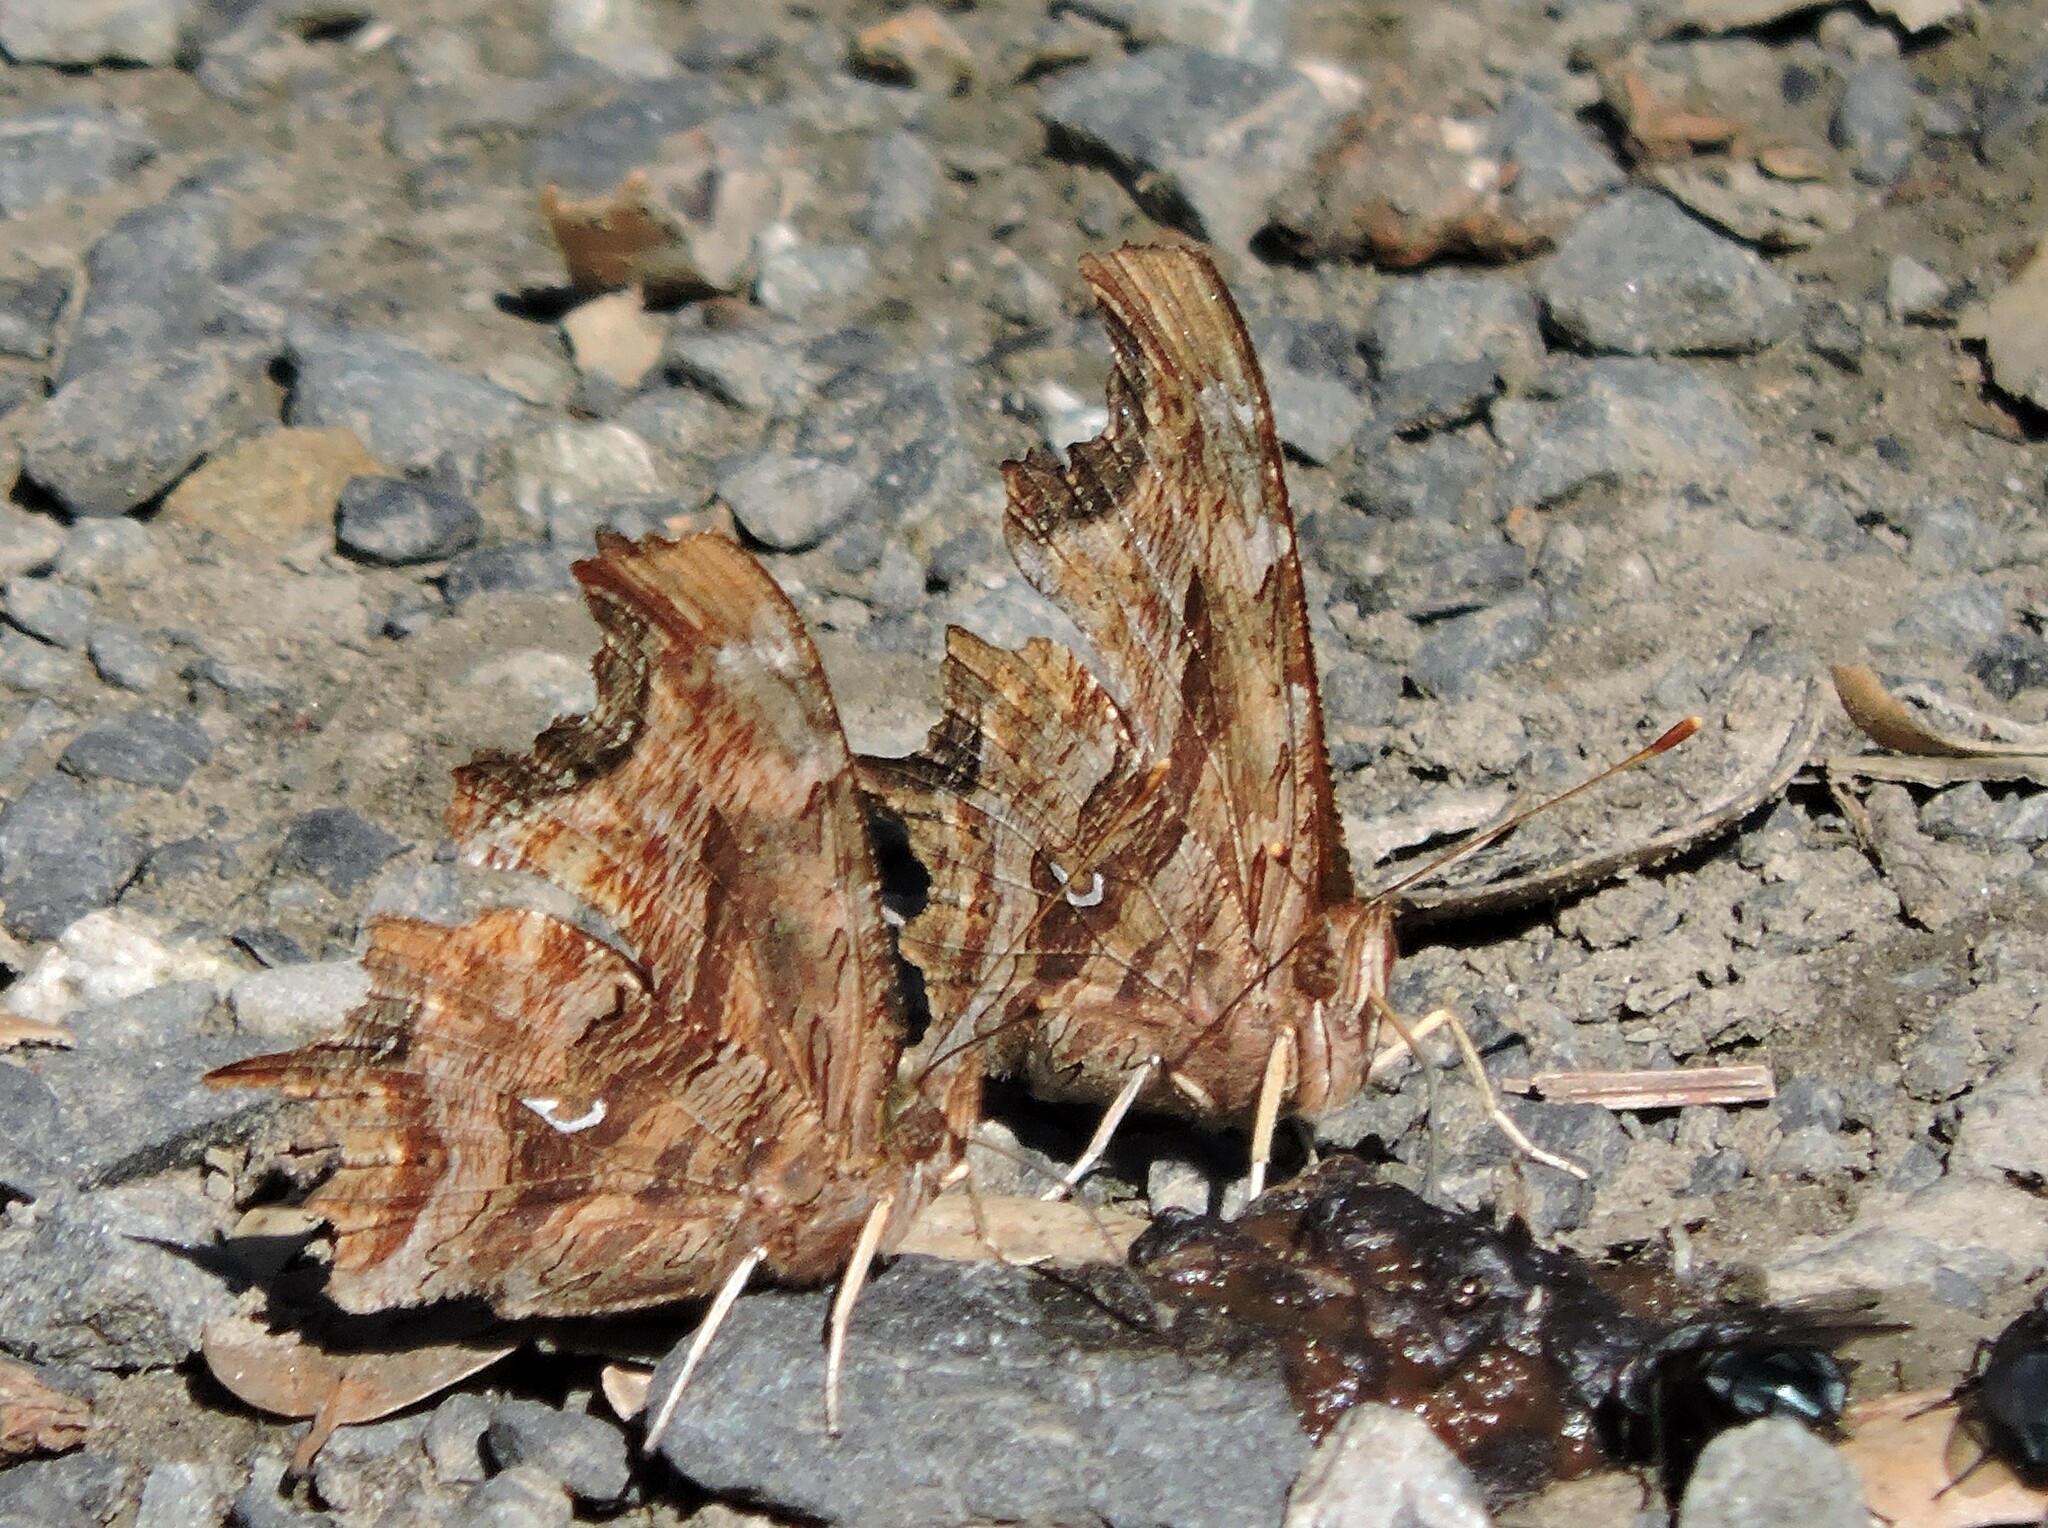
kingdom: Animalia
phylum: Arthropoda
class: Insecta
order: Lepidoptera
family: Nymphalidae
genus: Polygonia
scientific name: Polygonia satyrus
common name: Satyr angle wing
